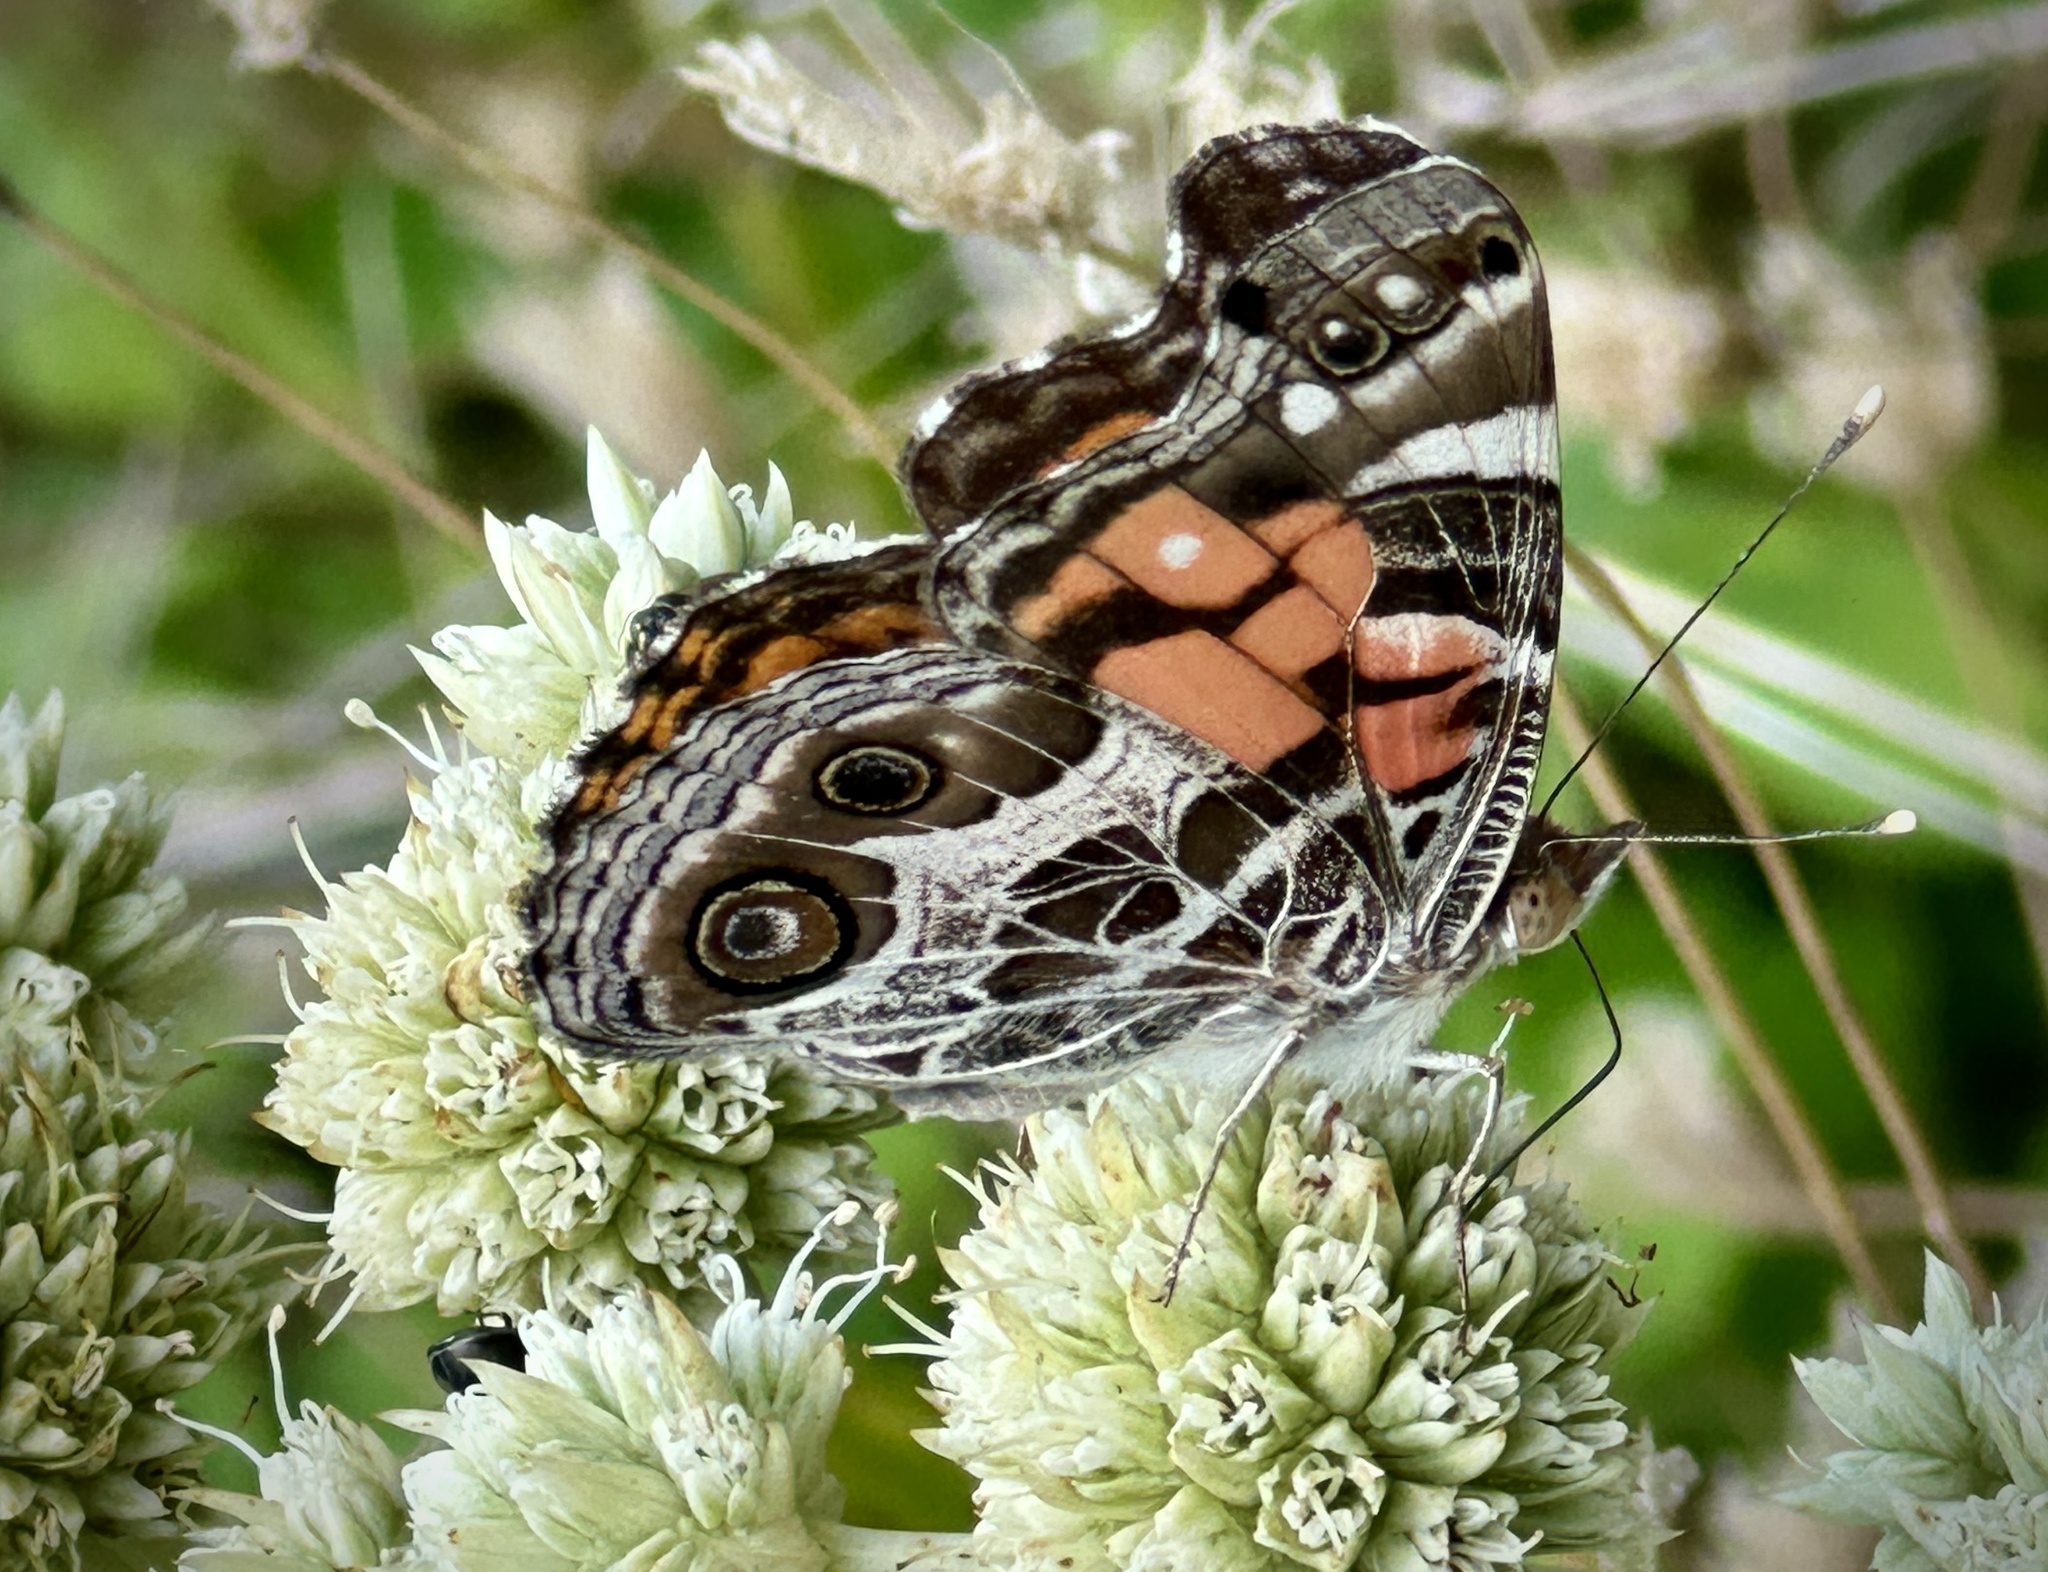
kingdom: Animalia
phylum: Arthropoda
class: Insecta
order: Lepidoptera
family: Nymphalidae
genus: Vanessa
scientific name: Vanessa virginiensis
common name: American lady
